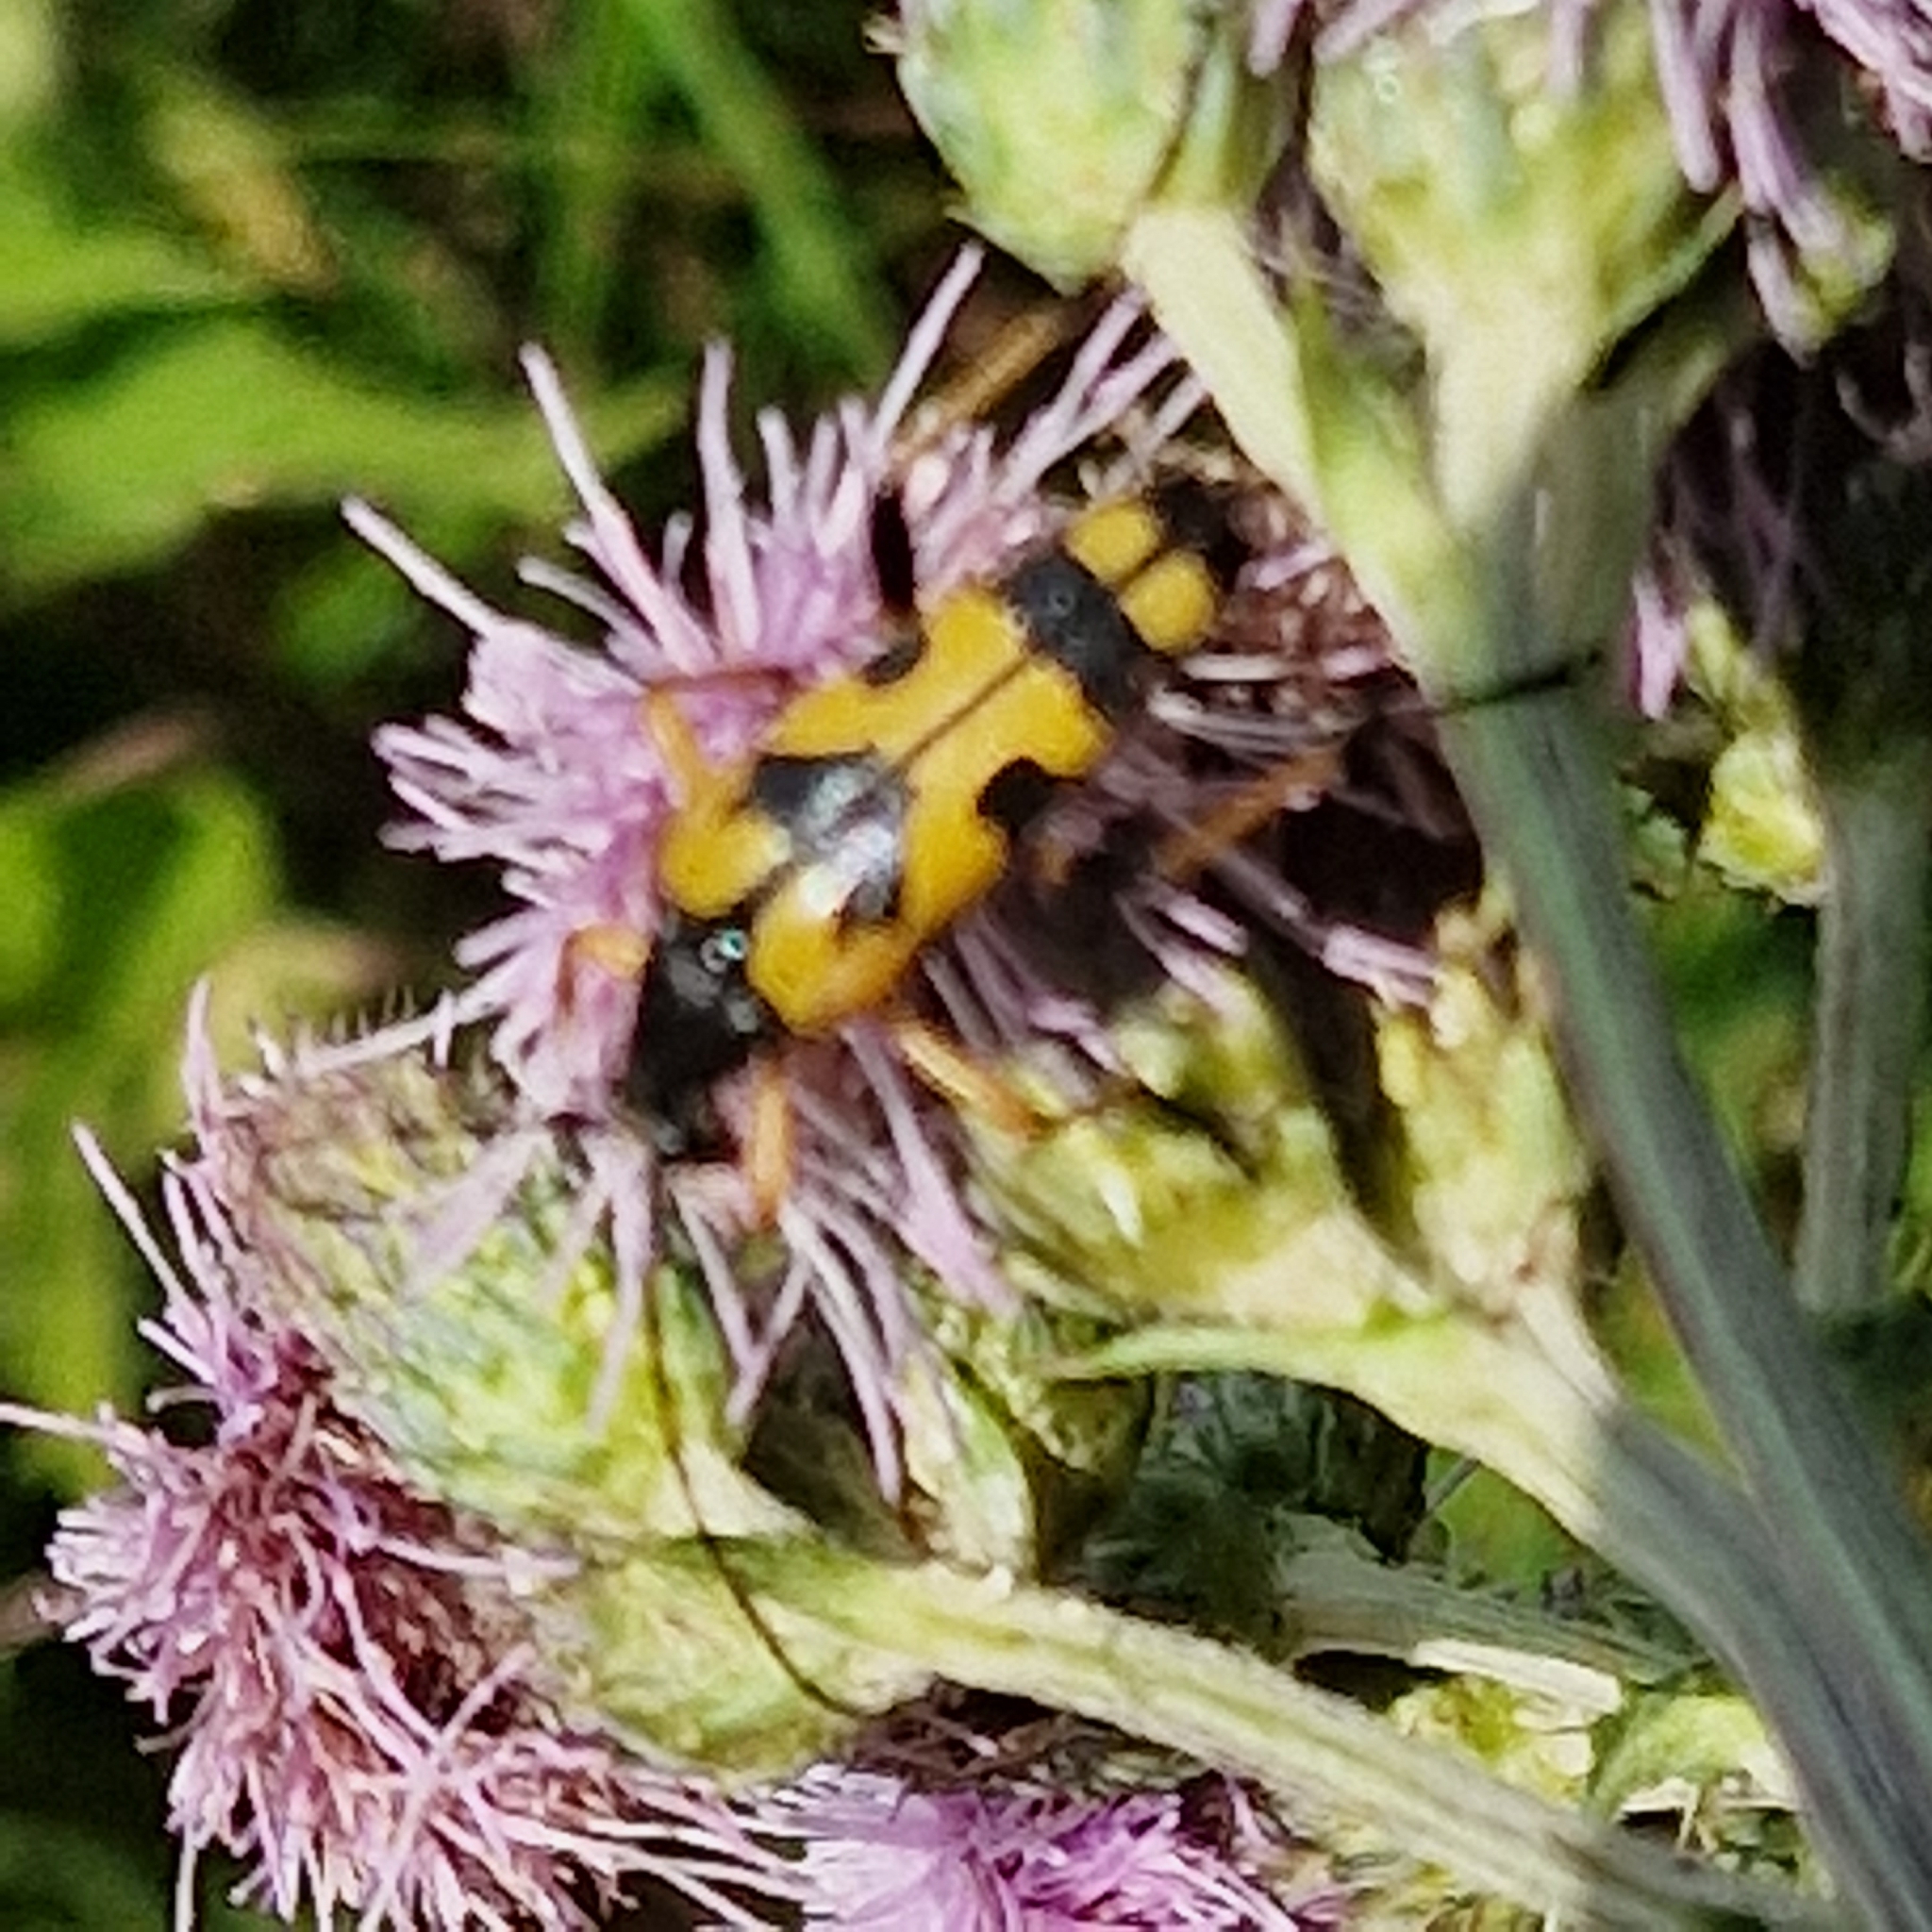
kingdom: Animalia
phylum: Arthropoda
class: Insecta
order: Coleoptera
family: Cerambycidae
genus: Rutpela
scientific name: Rutpela maculata
